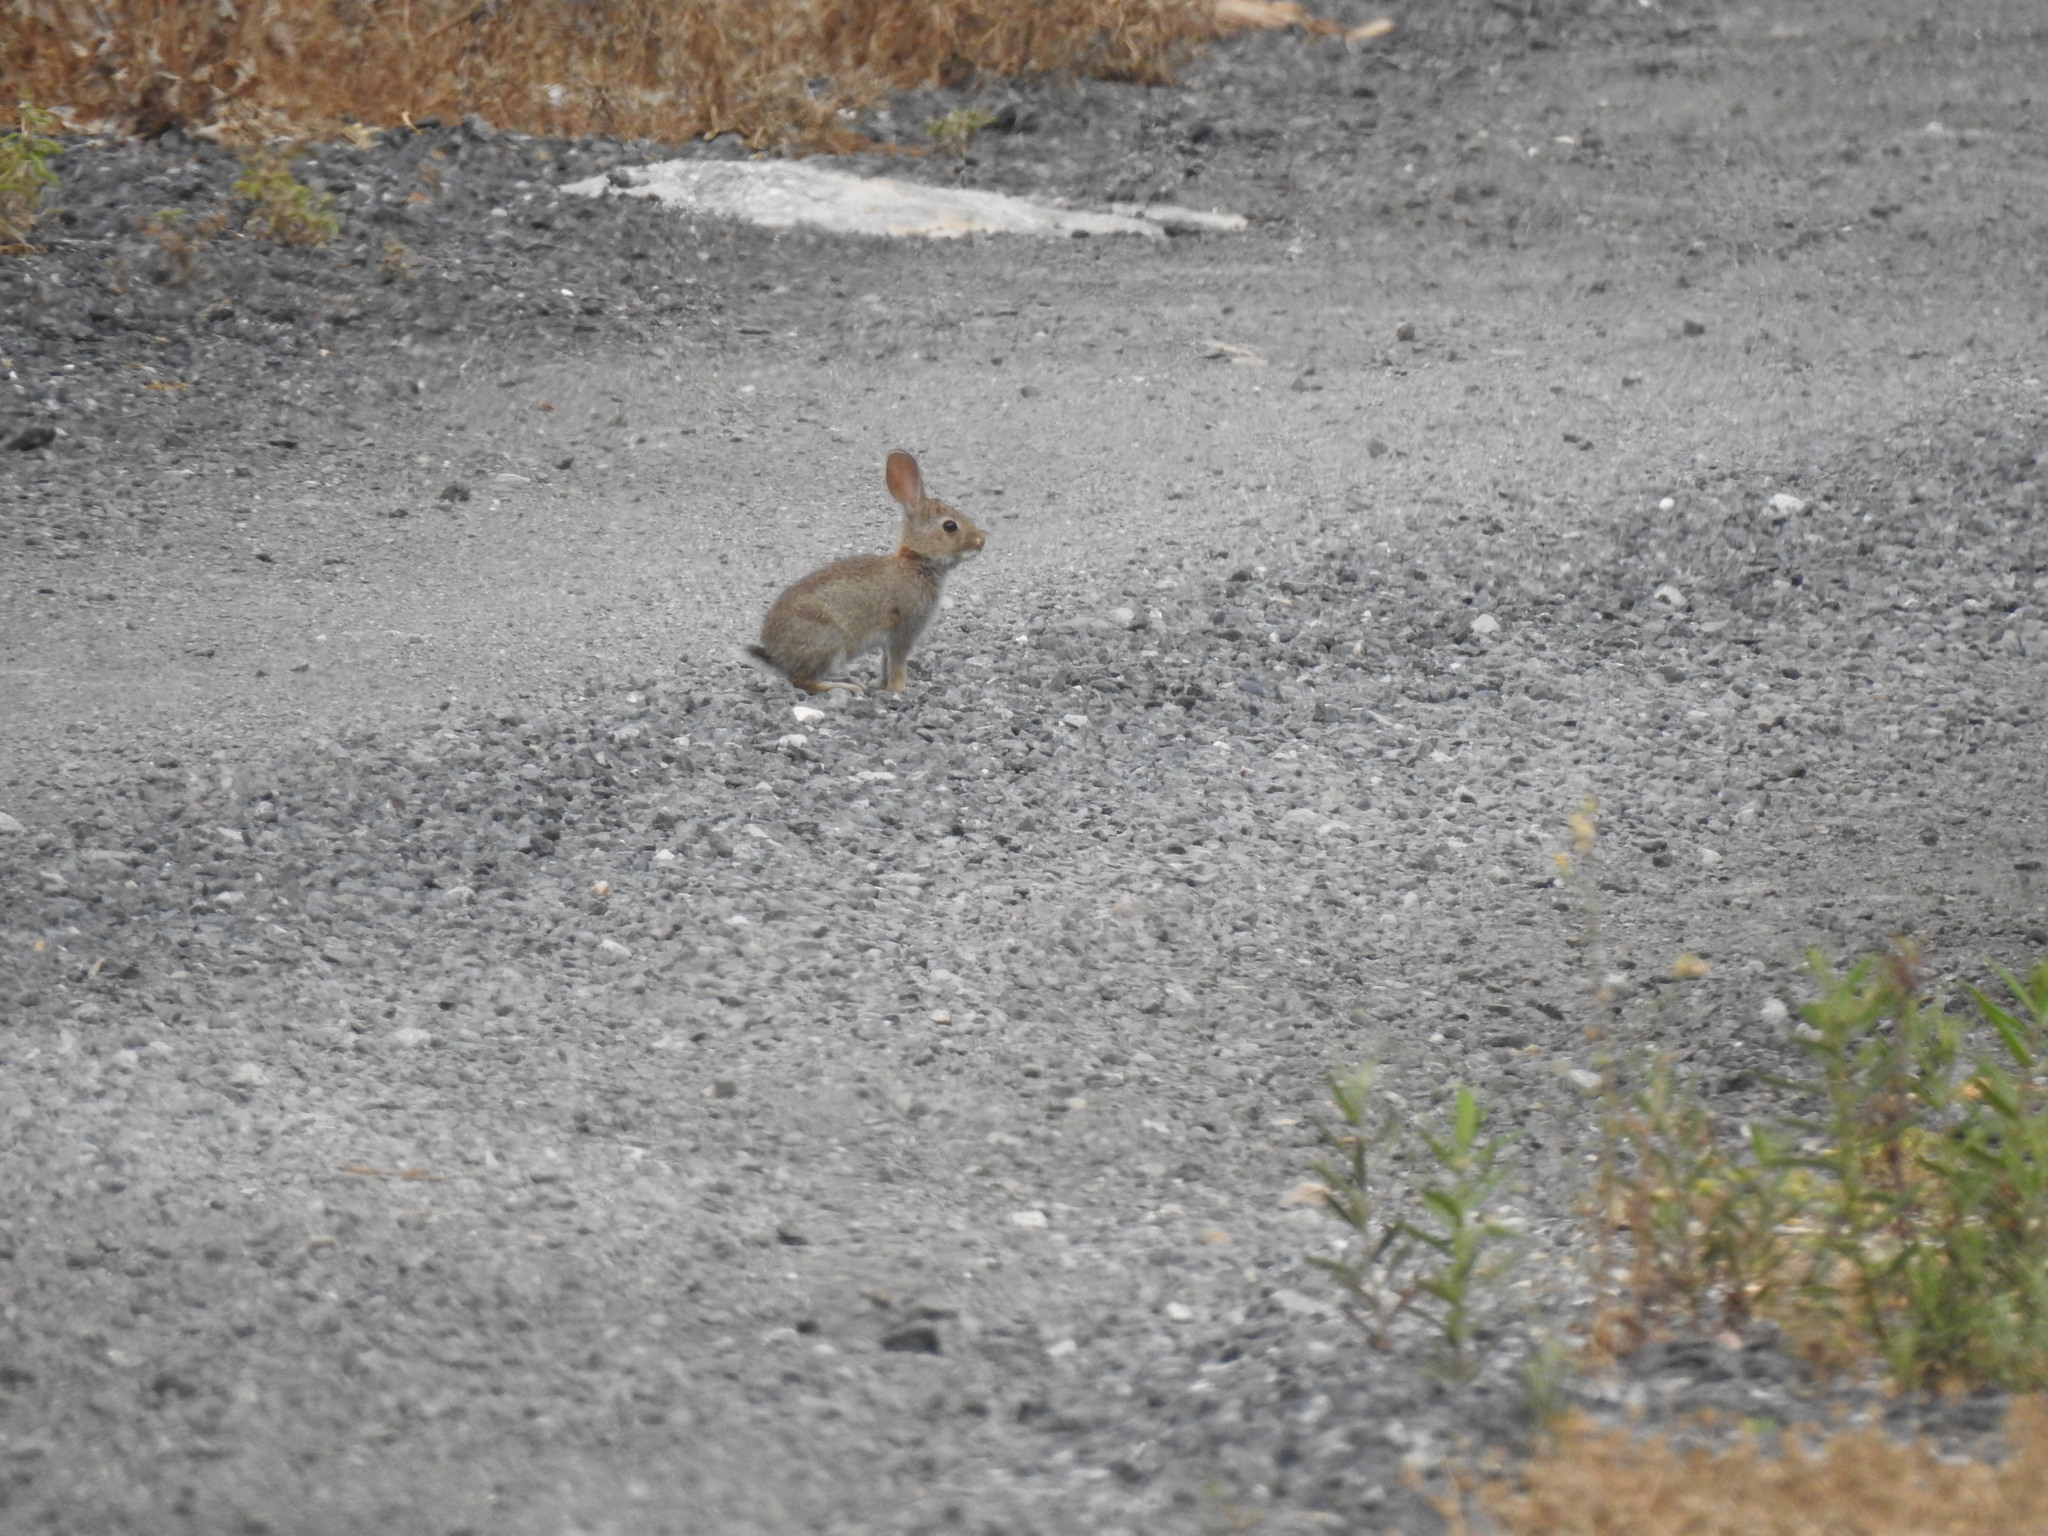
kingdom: Animalia
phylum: Chordata
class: Mammalia
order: Lagomorpha
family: Leporidae
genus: Oryctolagus
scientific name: Oryctolagus cuniculus
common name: European rabbit
